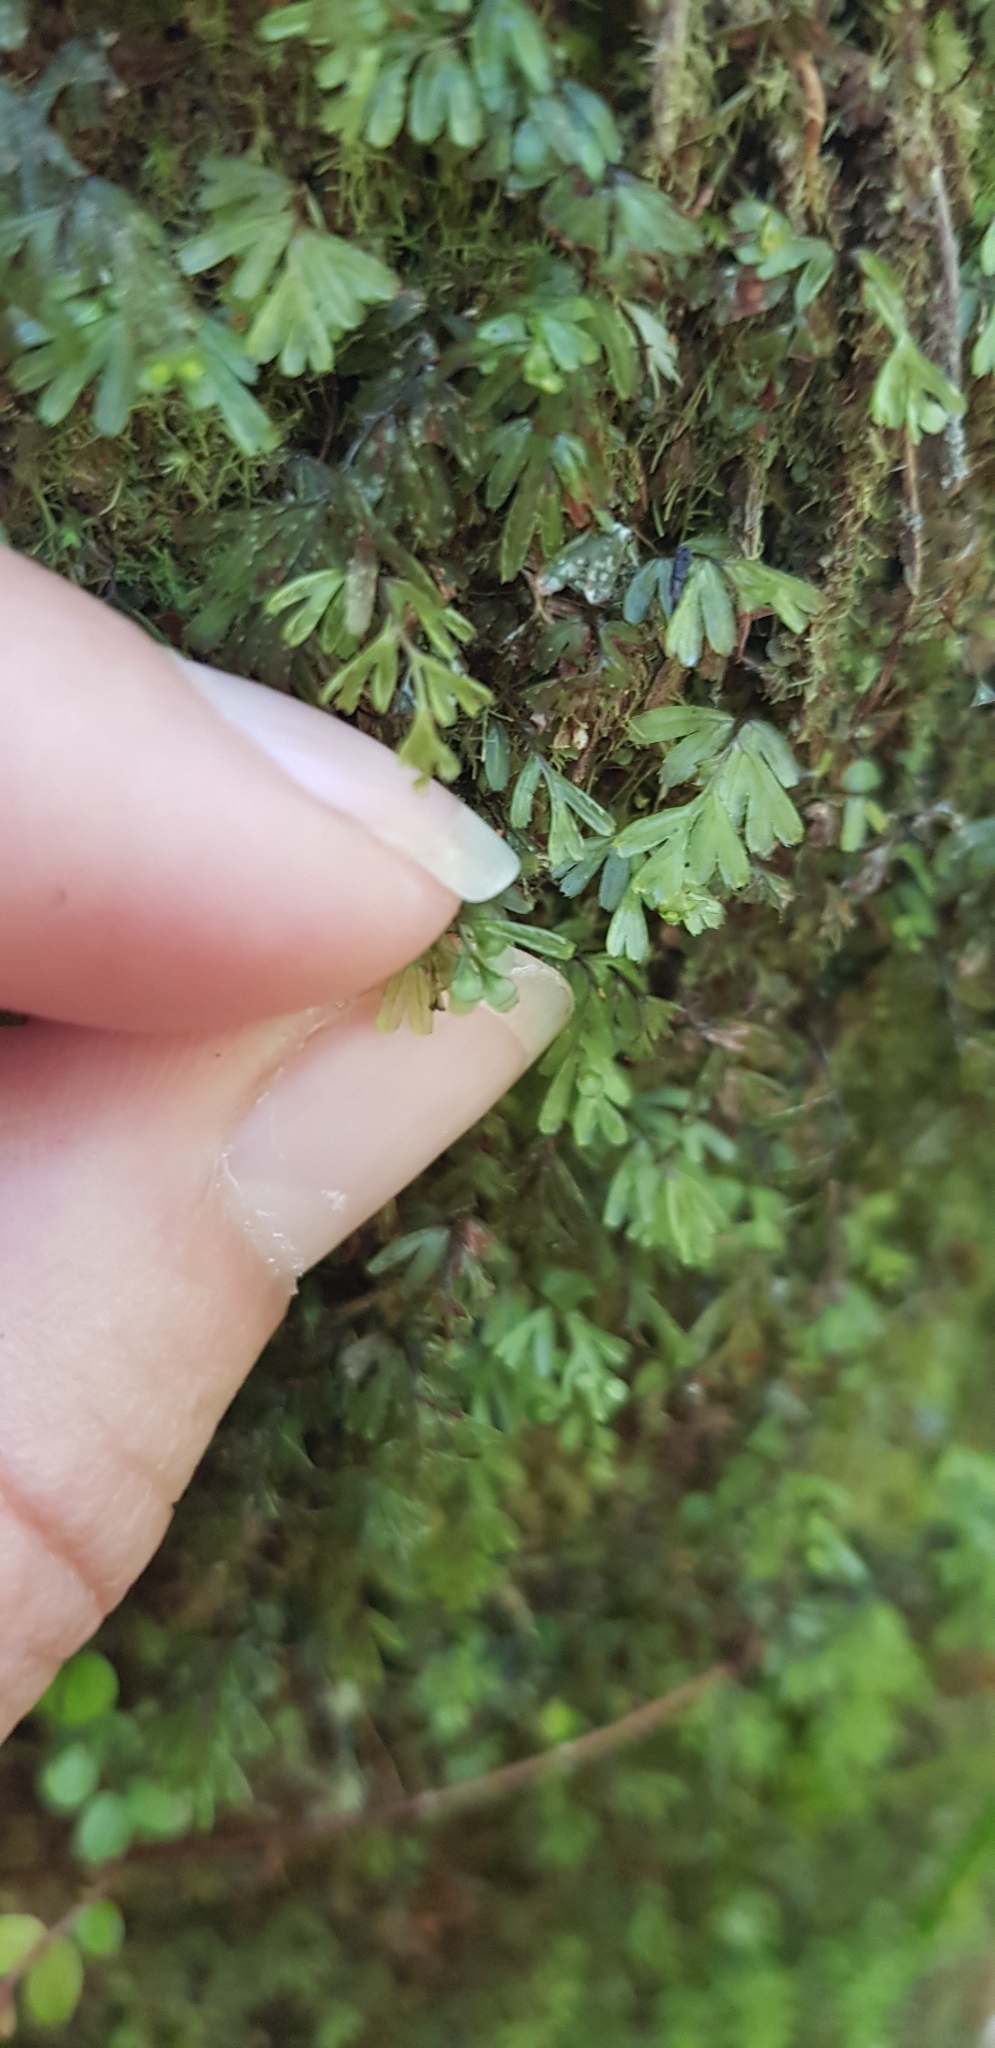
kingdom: Plantae
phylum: Tracheophyta
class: Polypodiopsida
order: Hymenophyllales
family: Hymenophyllaceae
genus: Hymenophyllum
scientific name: Hymenophyllum revolutum
